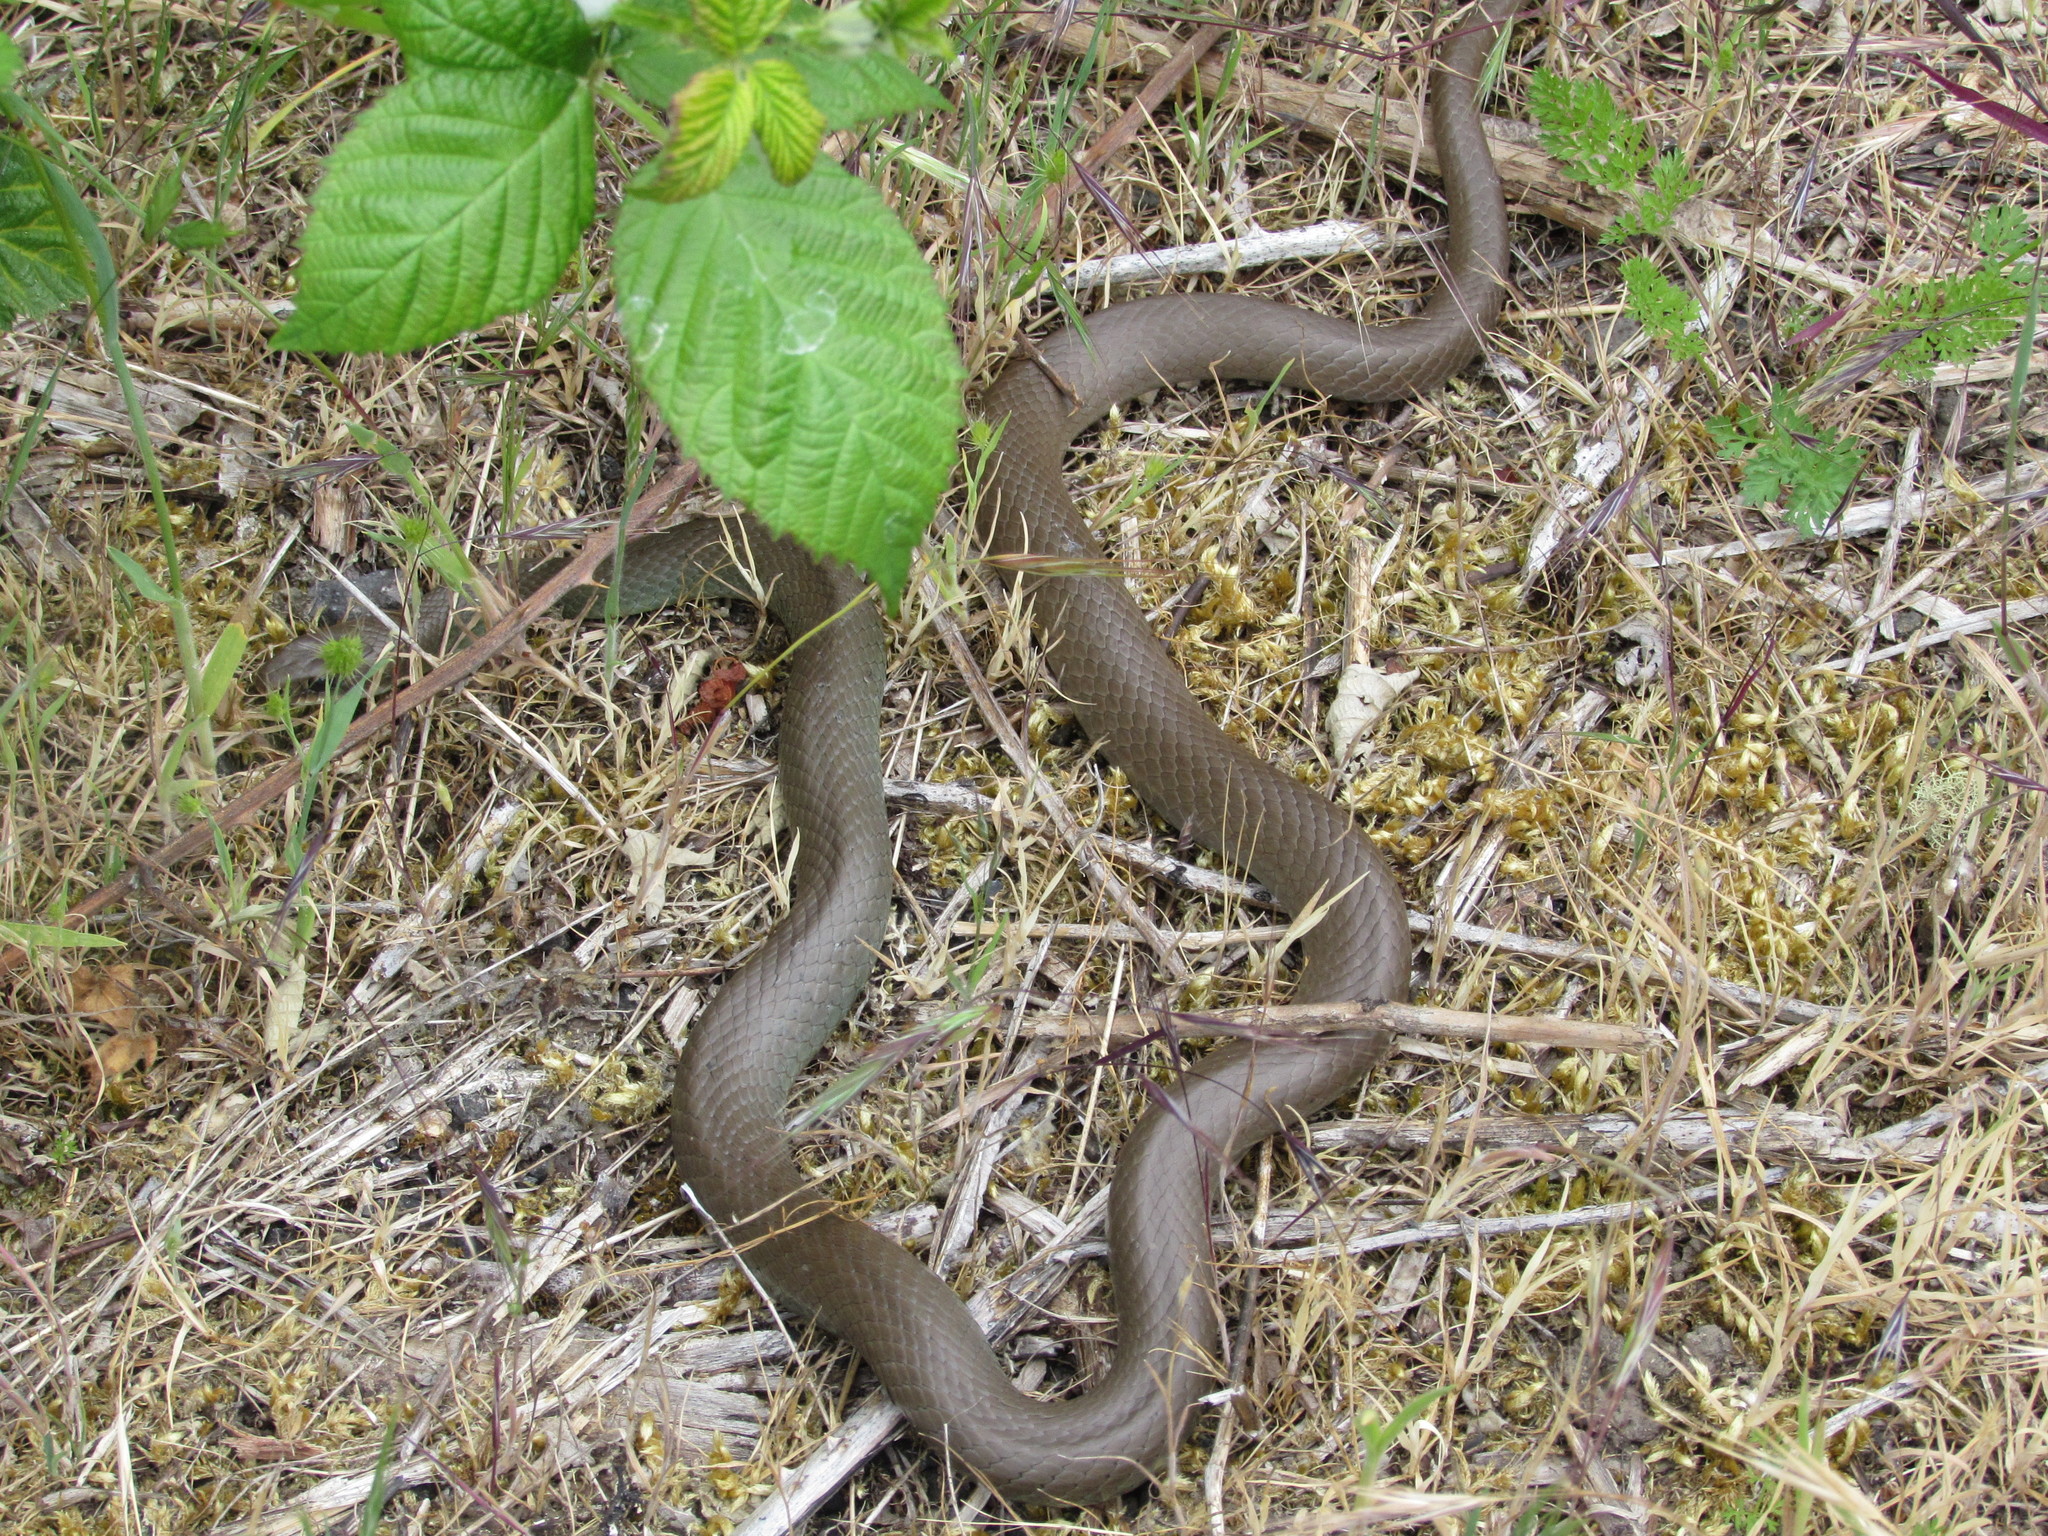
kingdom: Animalia
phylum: Chordata
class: Squamata
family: Colubridae
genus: Coluber
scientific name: Coluber constrictor
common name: Eastern racer
